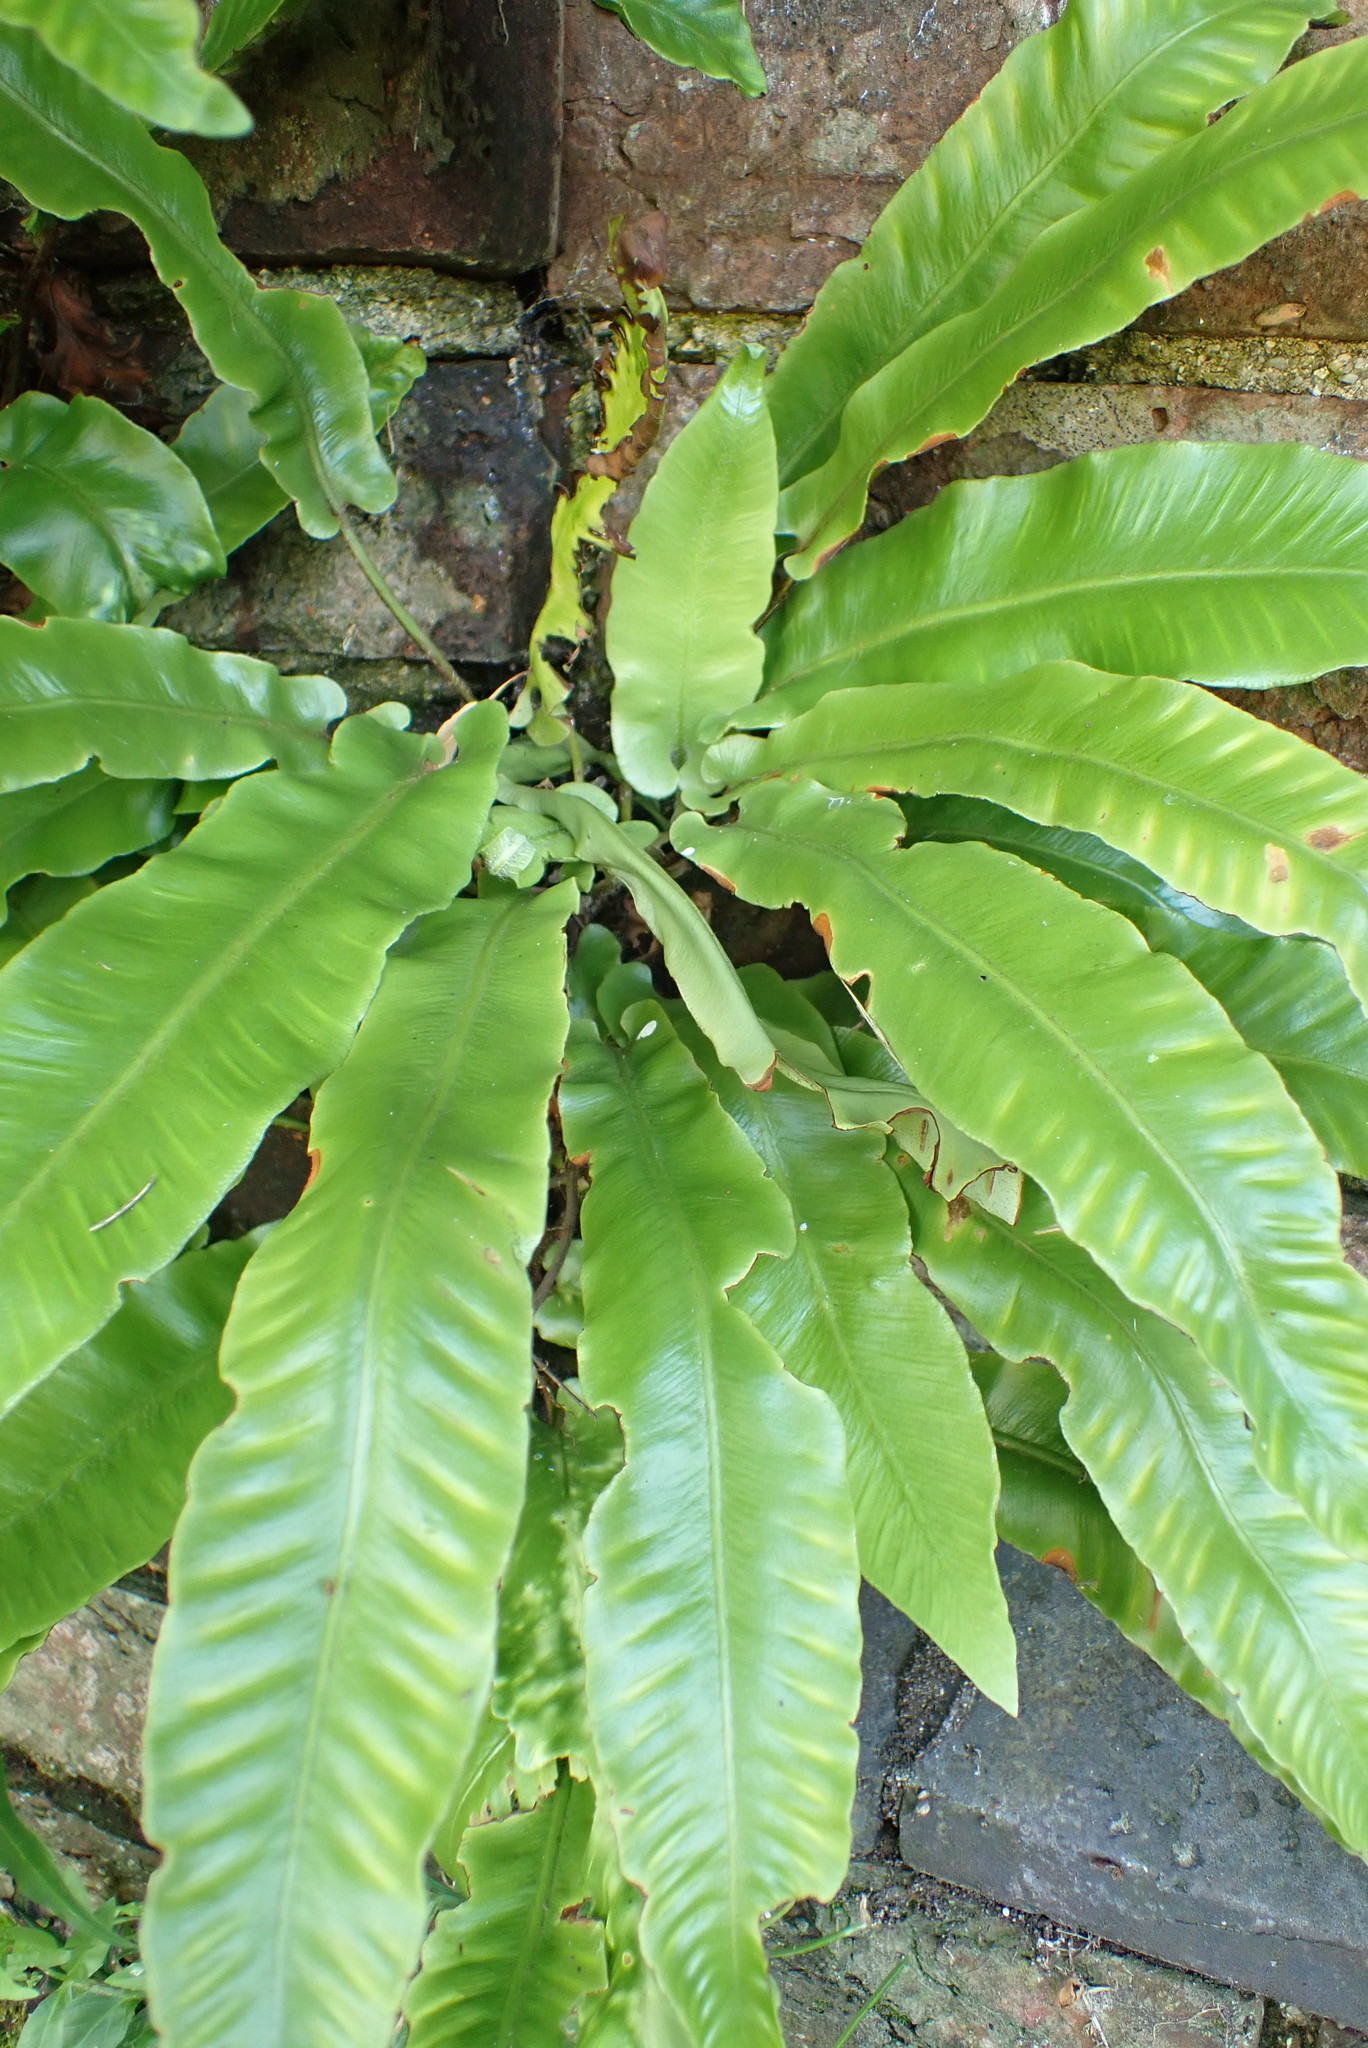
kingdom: Plantae
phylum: Tracheophyta
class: Polypodiopsida
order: Polypodiales
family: Aspleniaceae
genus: Asplenium
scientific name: Asplenium scolopendrium
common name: Hart's-tongue fern
